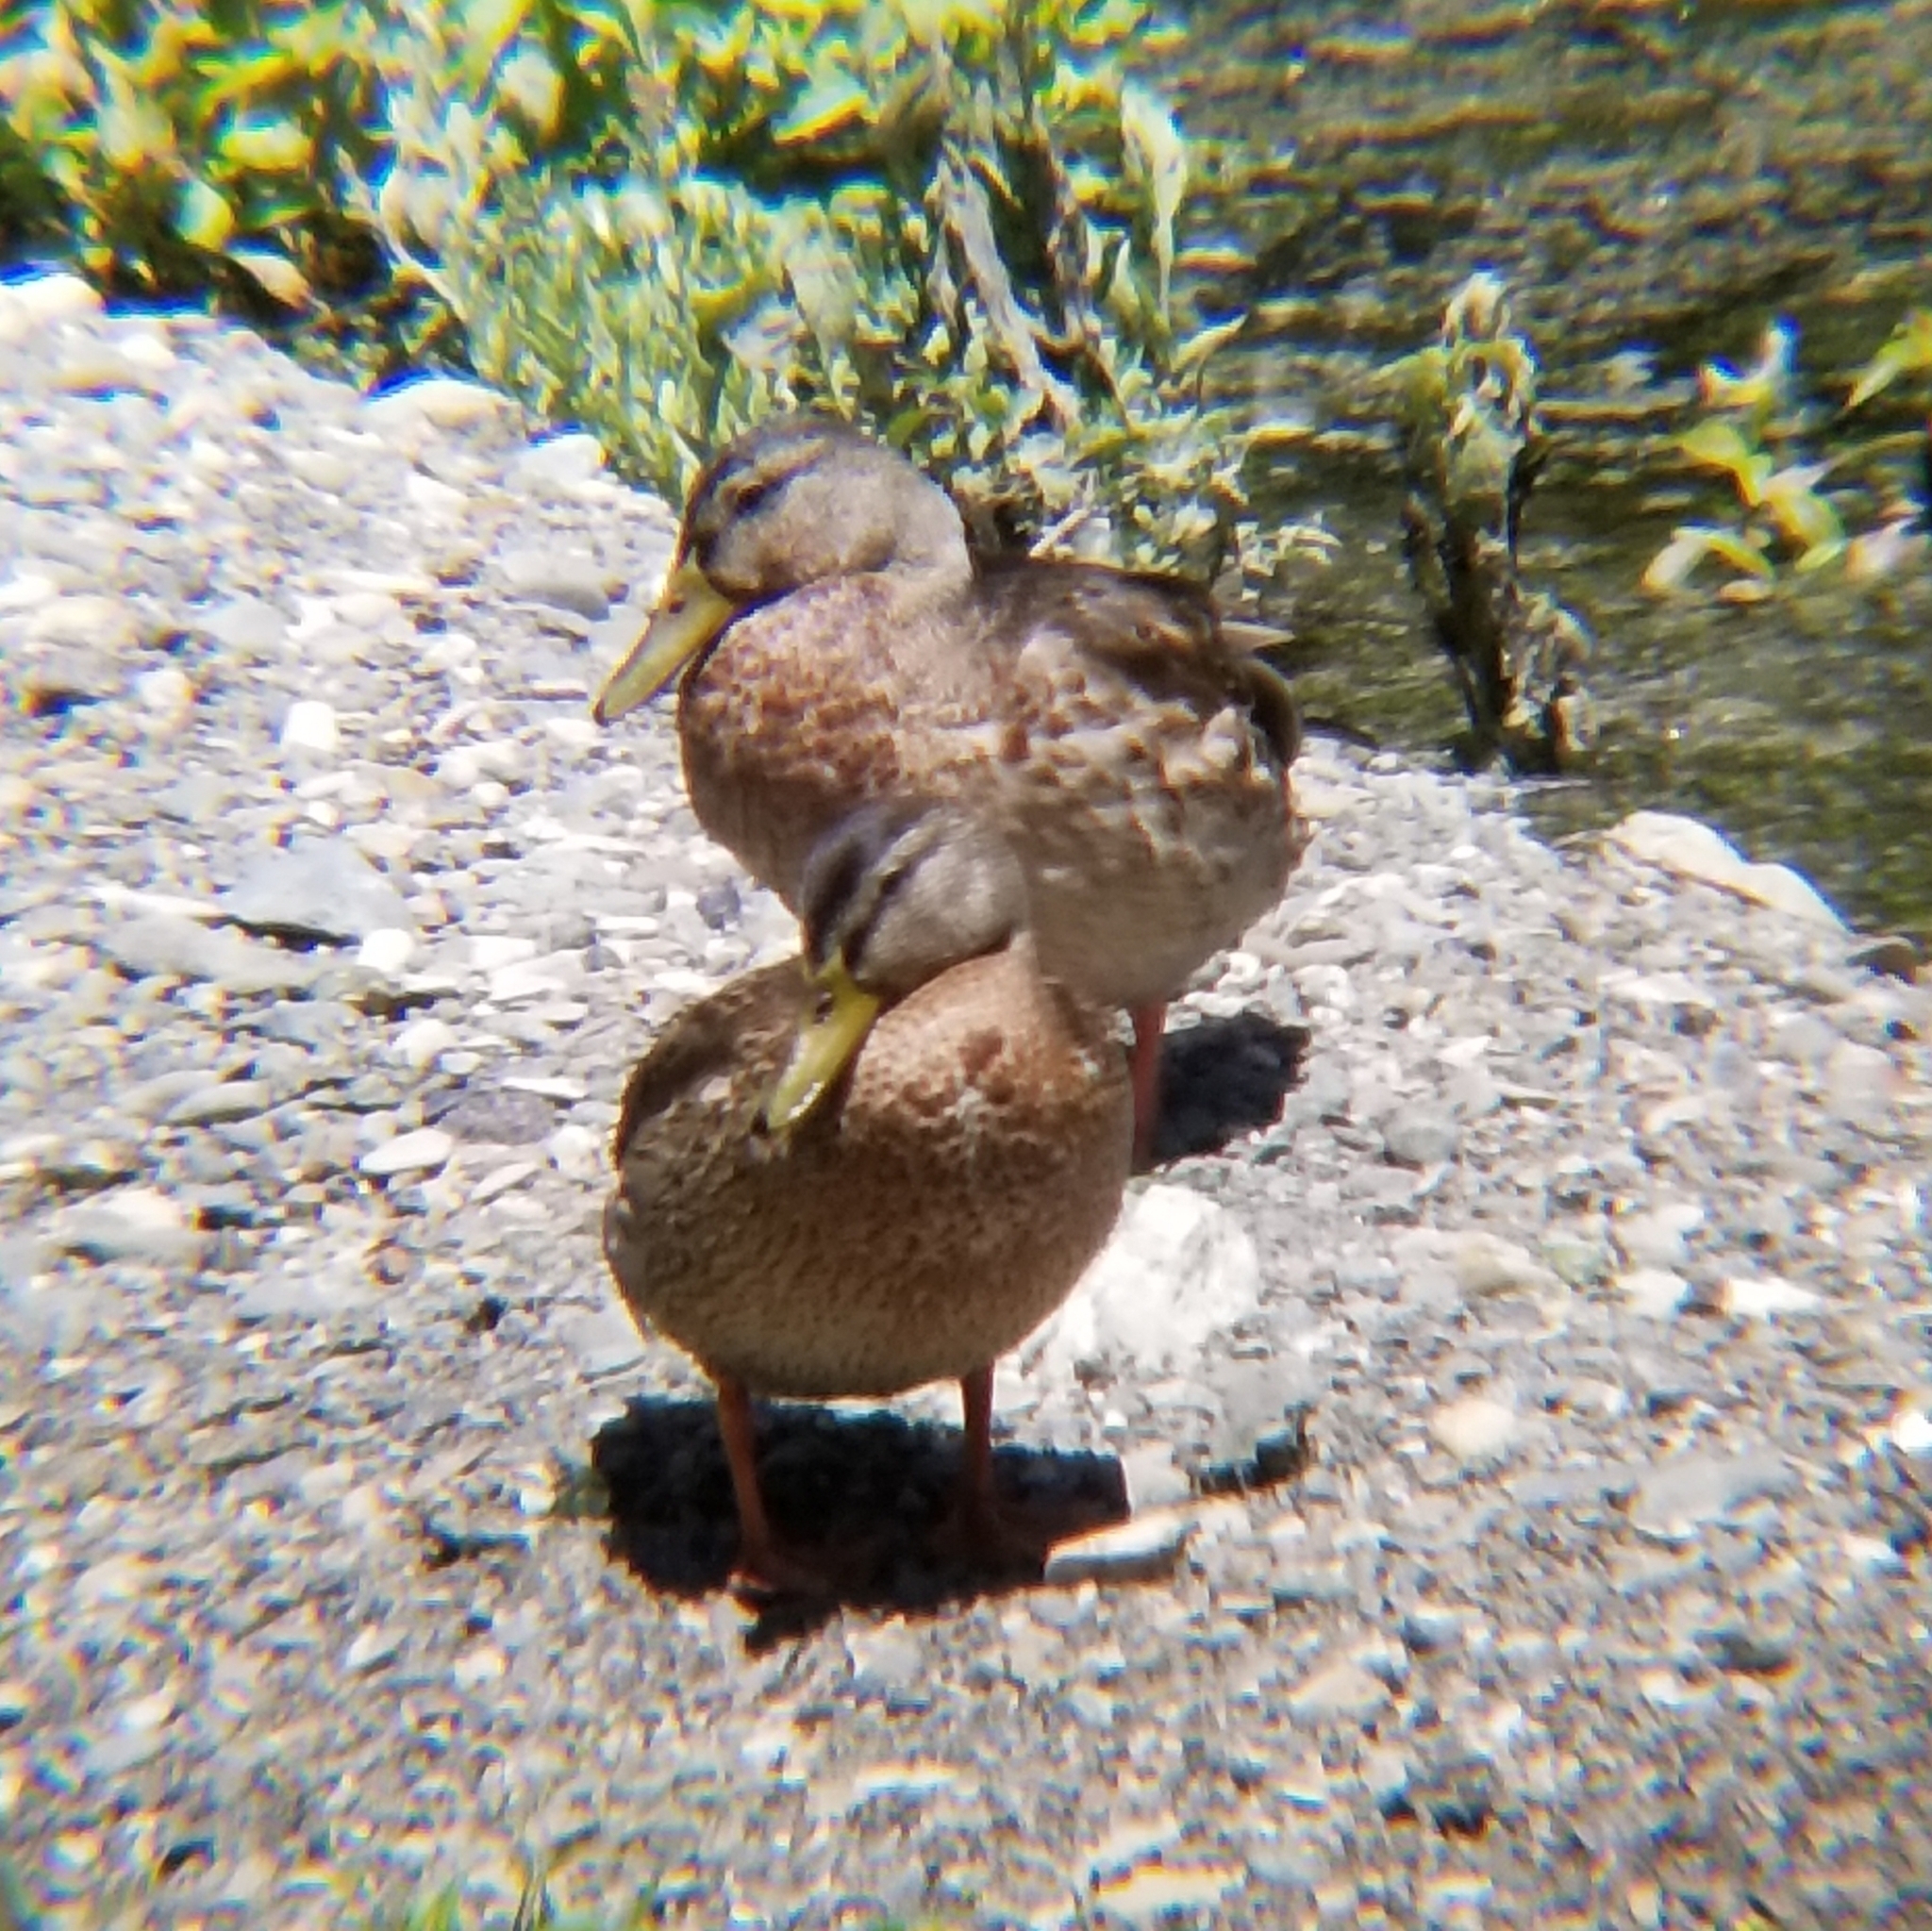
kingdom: Animalia
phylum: Chordata
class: Aves
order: Anseriformes
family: Anatidae
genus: Anas
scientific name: Anas platyrhynchos
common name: Mallard
